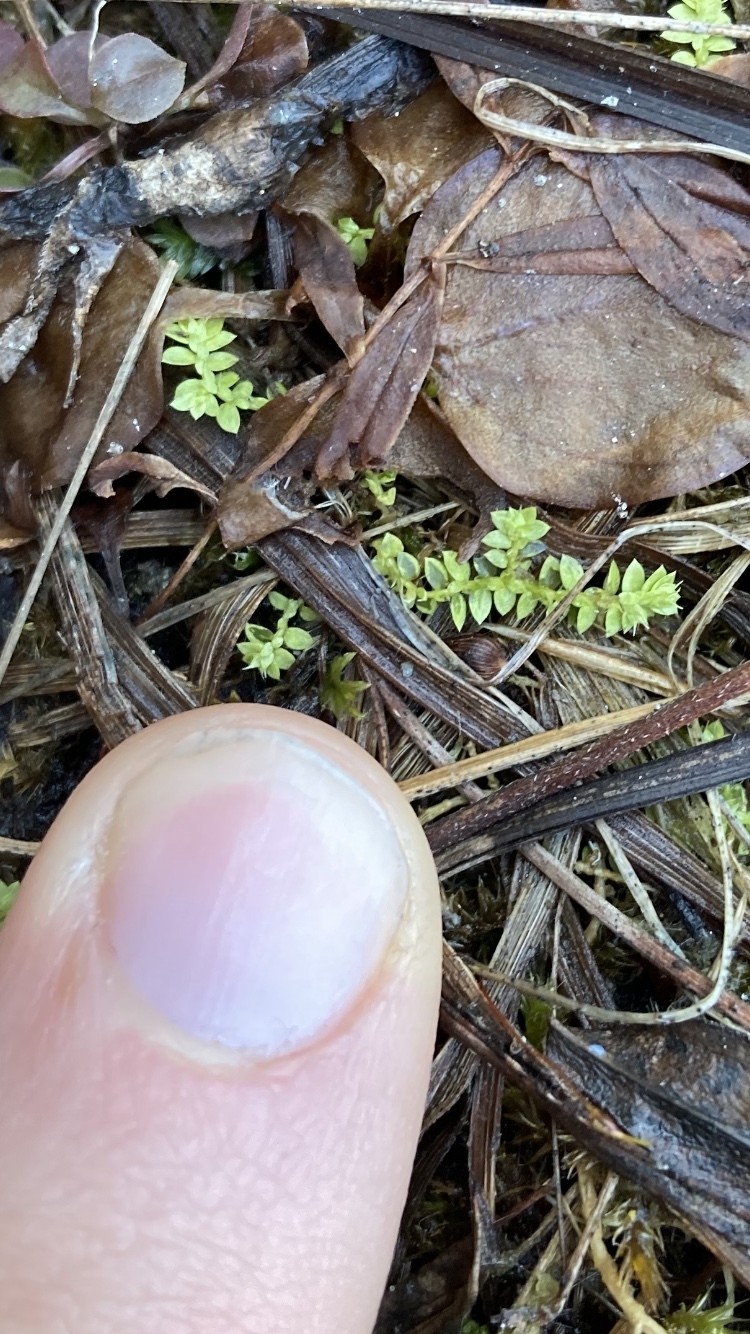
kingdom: Plantae
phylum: Tracheophyta
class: Lycopodiopsida
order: Selaginellales
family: Selaginellaceae
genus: Selaginella
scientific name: Selaginella eclipes
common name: Buck's meadow spikemoss
